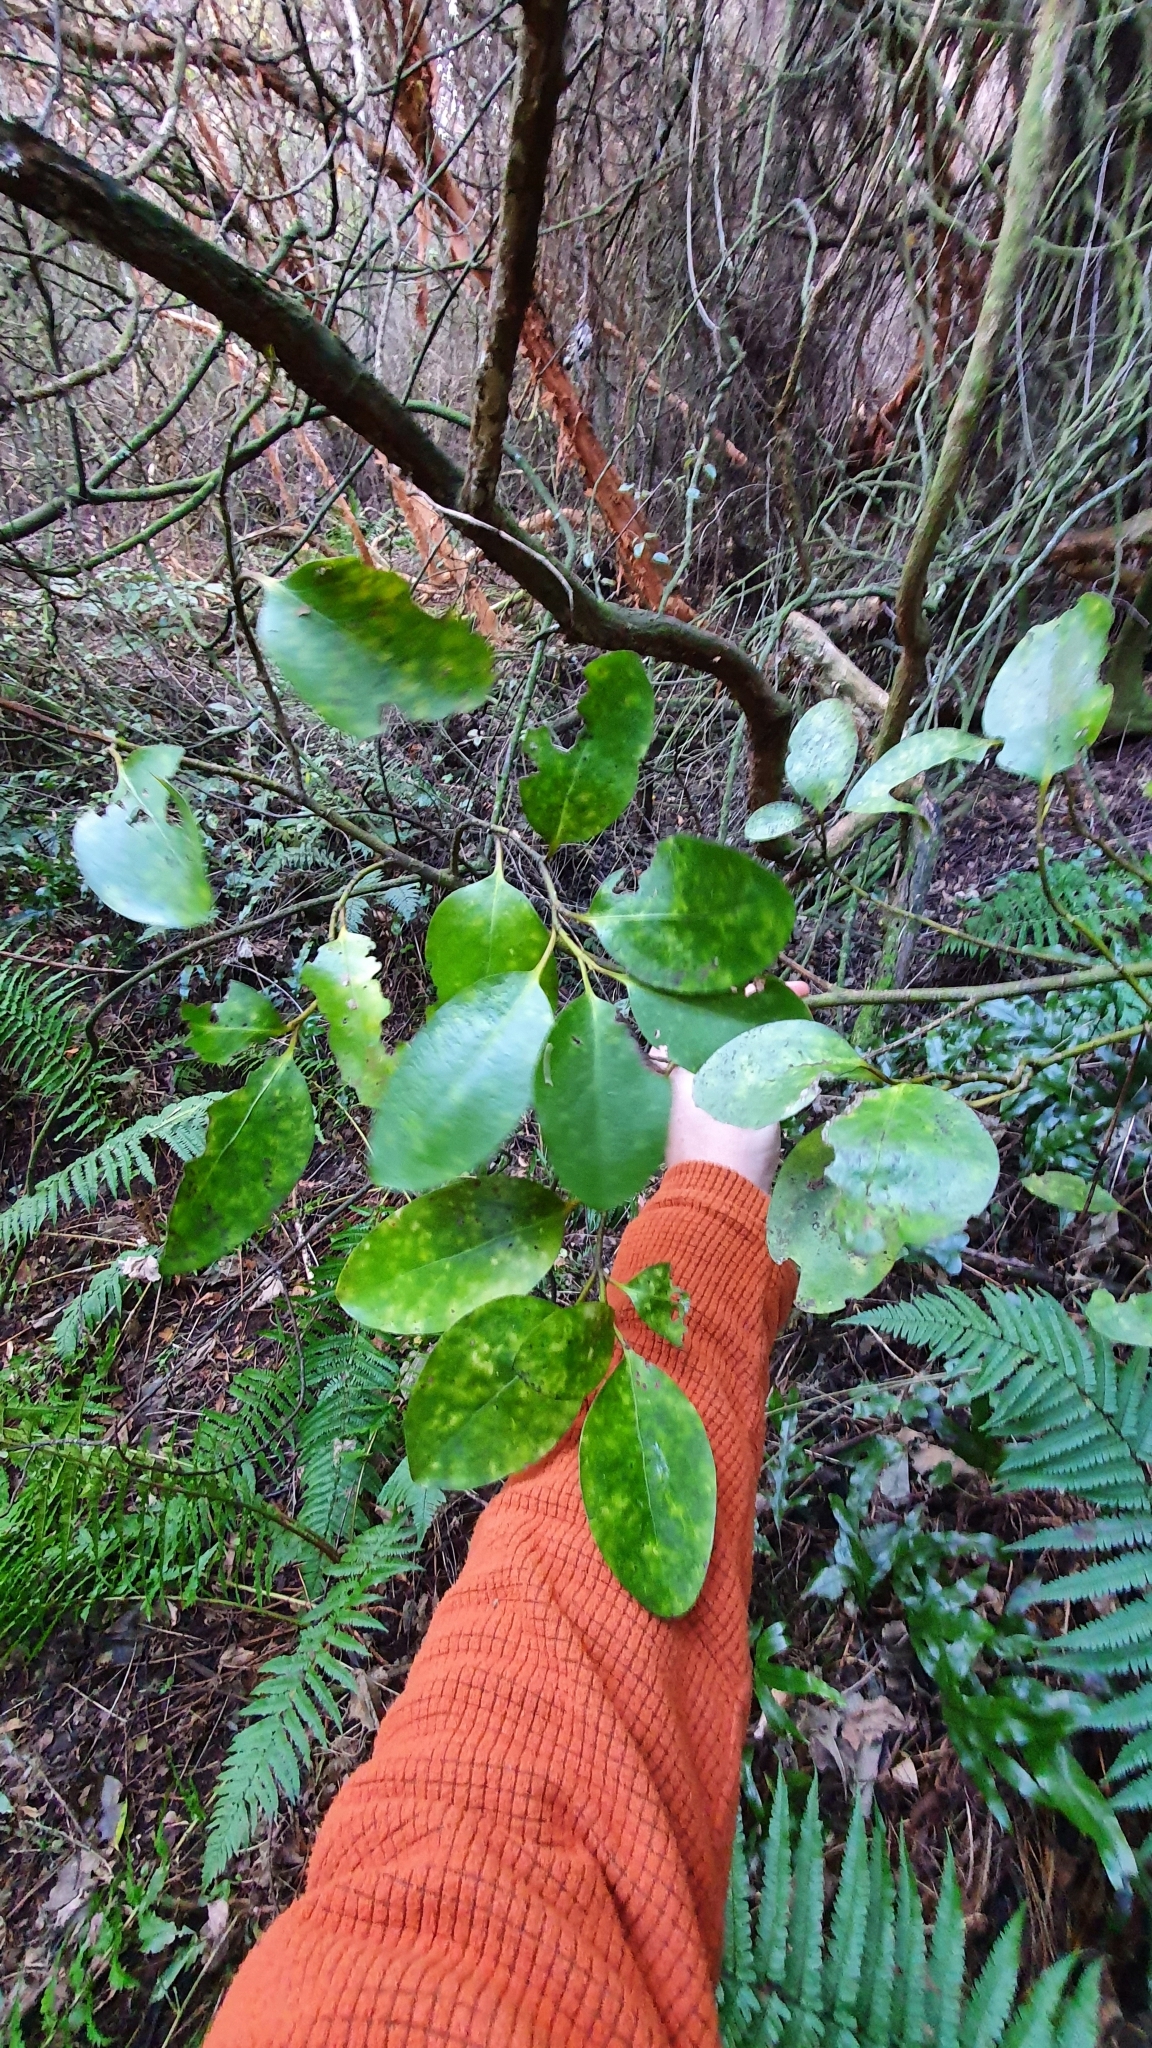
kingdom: Plantae
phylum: Tracheophyta
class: Magnoliopsida
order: Apiales
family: Griseliniaceae
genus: Griselinia
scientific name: Griselinia littoralis
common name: New zealand broadleaf
